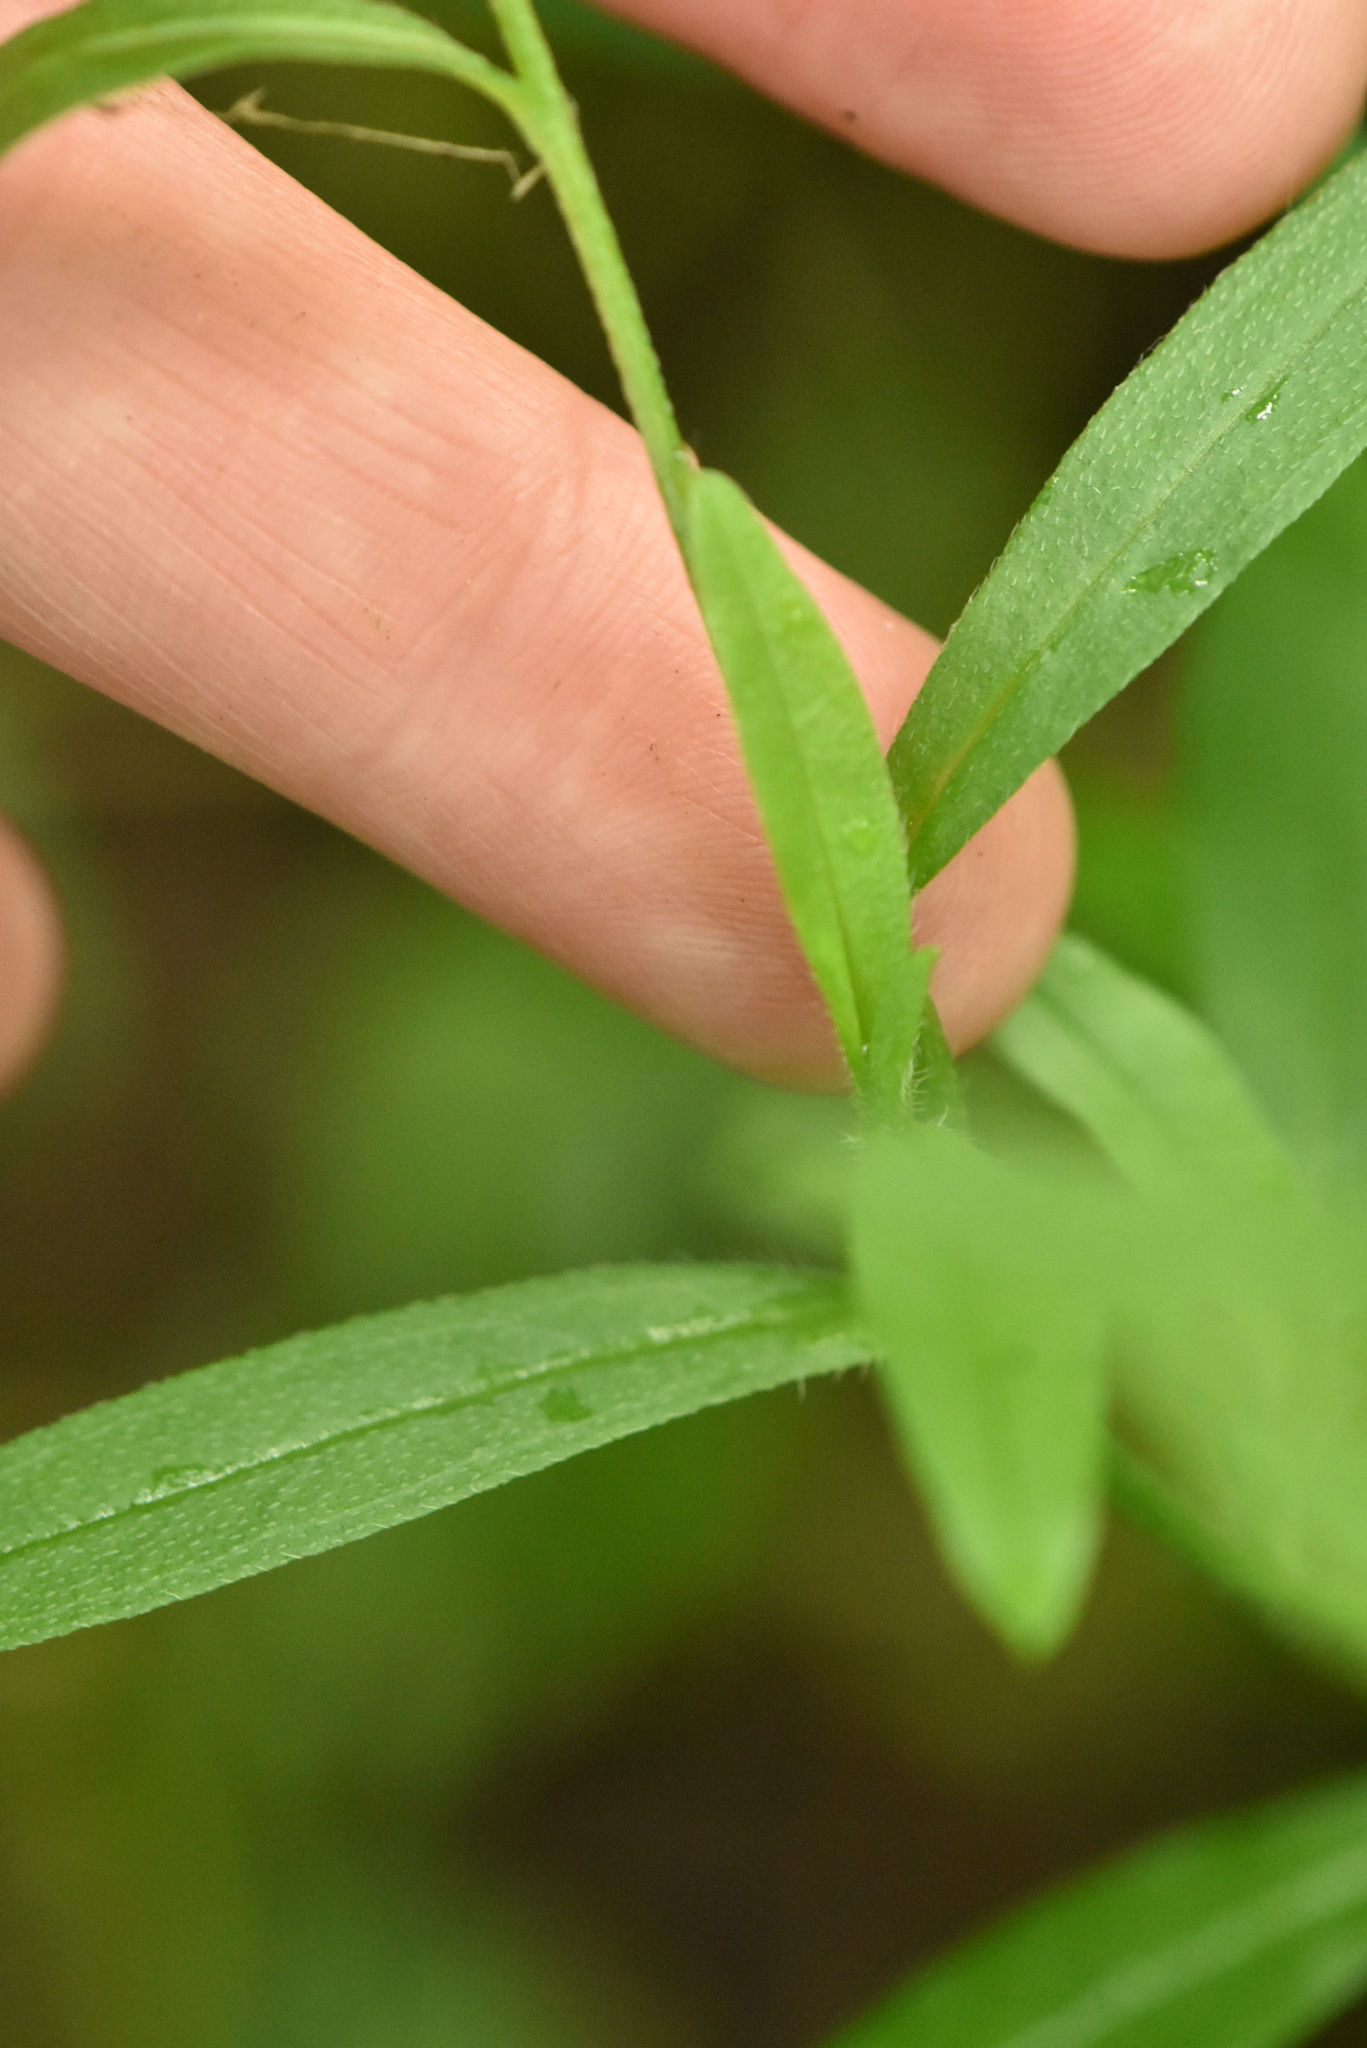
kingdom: Plantae
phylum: Tracheophyta
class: Magnoliopsida
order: Boraginales
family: Boraginaceae
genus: Myosotis
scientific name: Myosotis scorpioides
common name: Water forget-me-not
